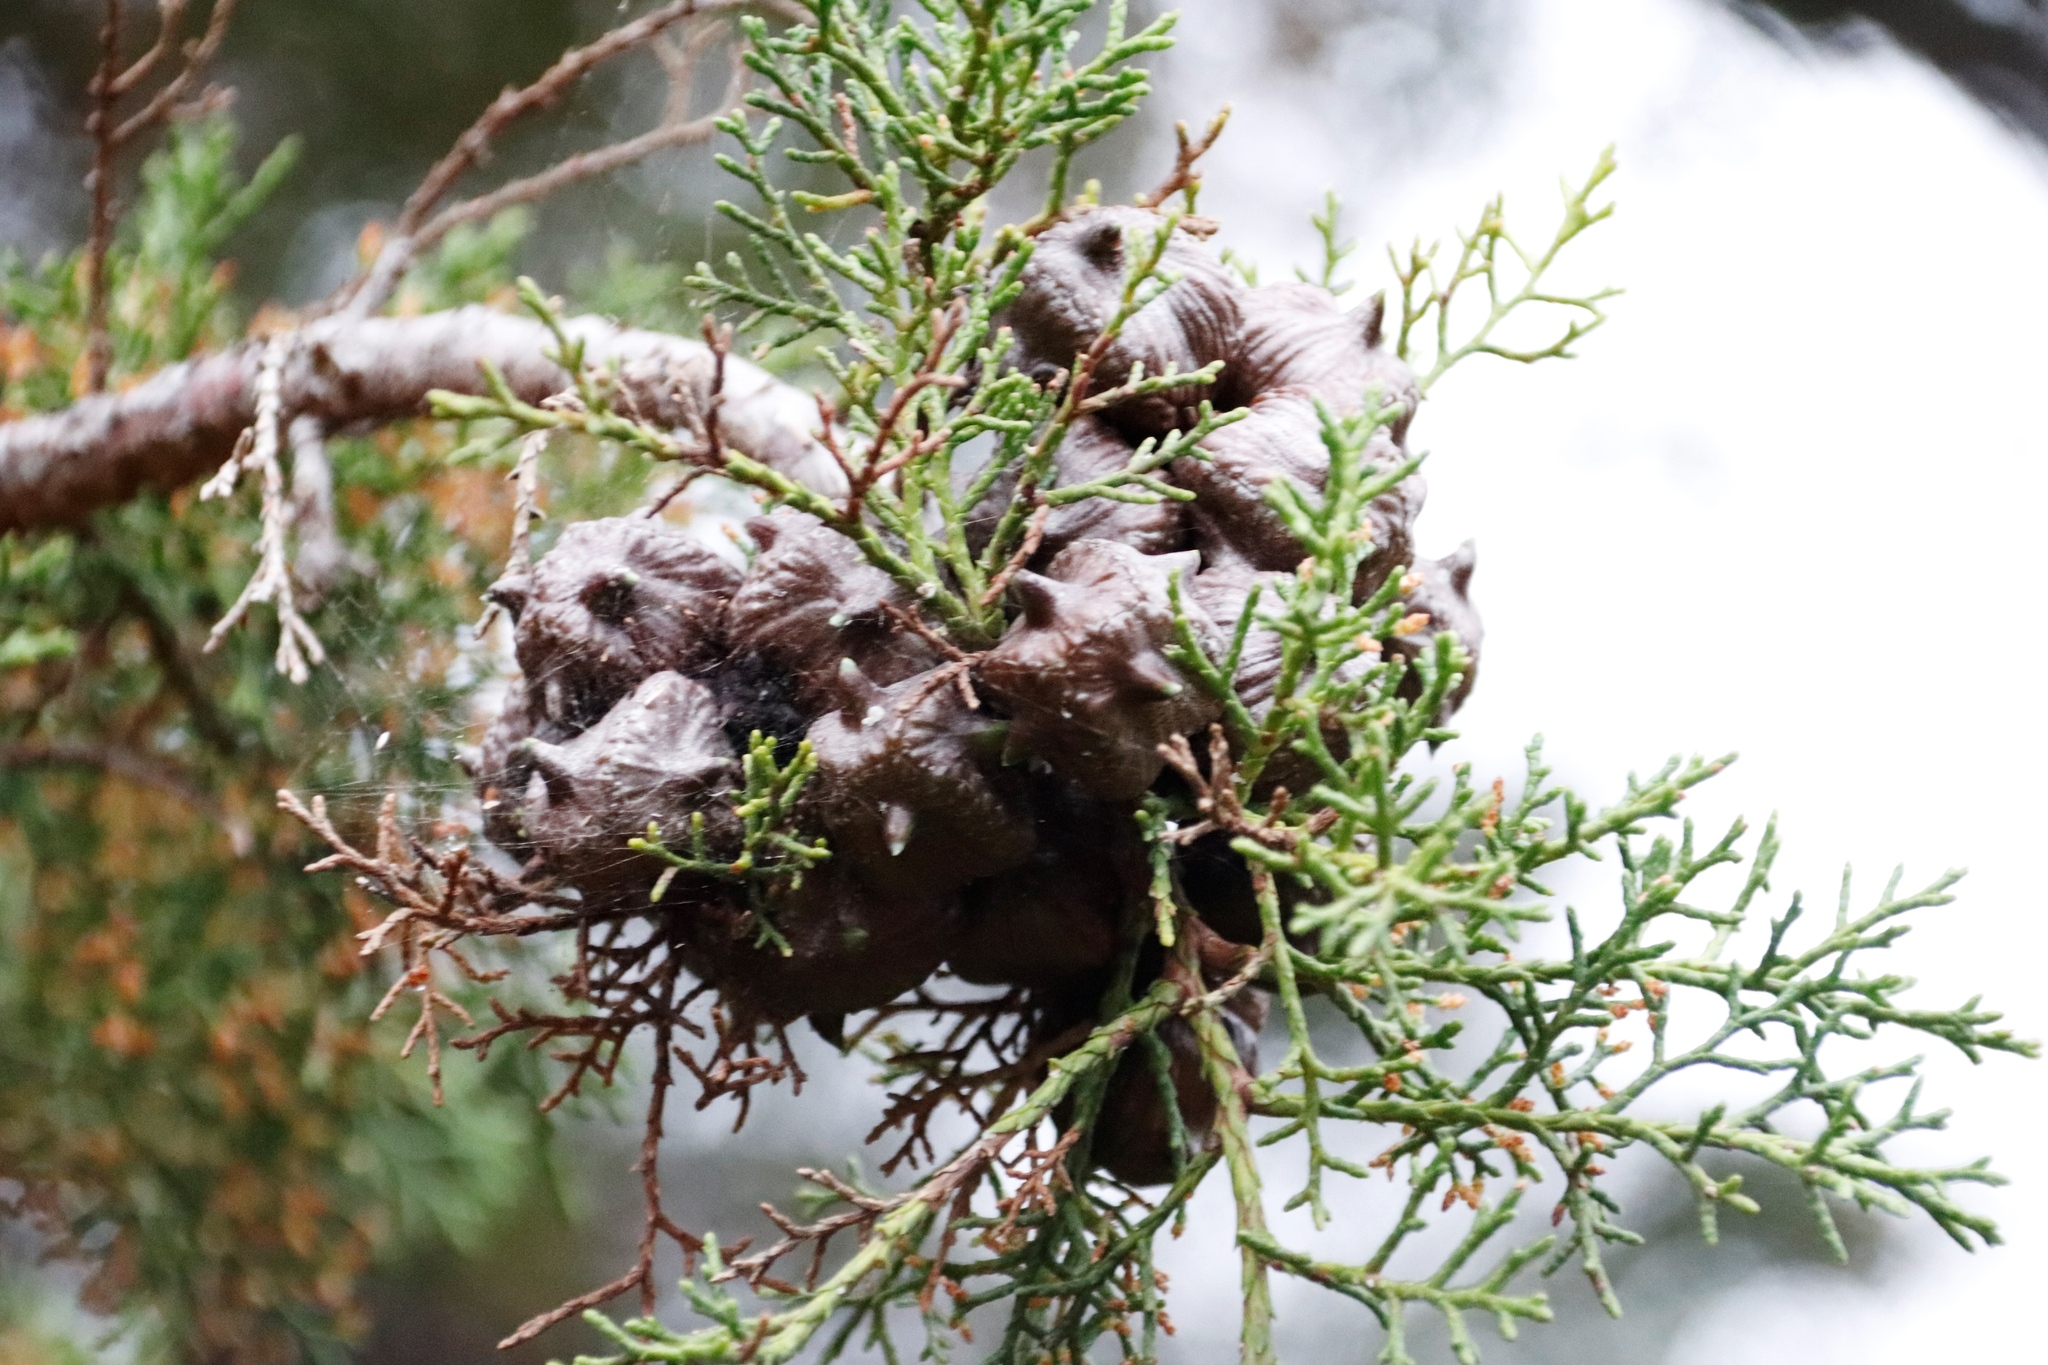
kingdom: Plantae
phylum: Tracheophyta
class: Pinopsida
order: Pinales
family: Cupressaceae
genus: Widdringtonia
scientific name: Widdringtonia schwarzii
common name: Baviaans cedar
